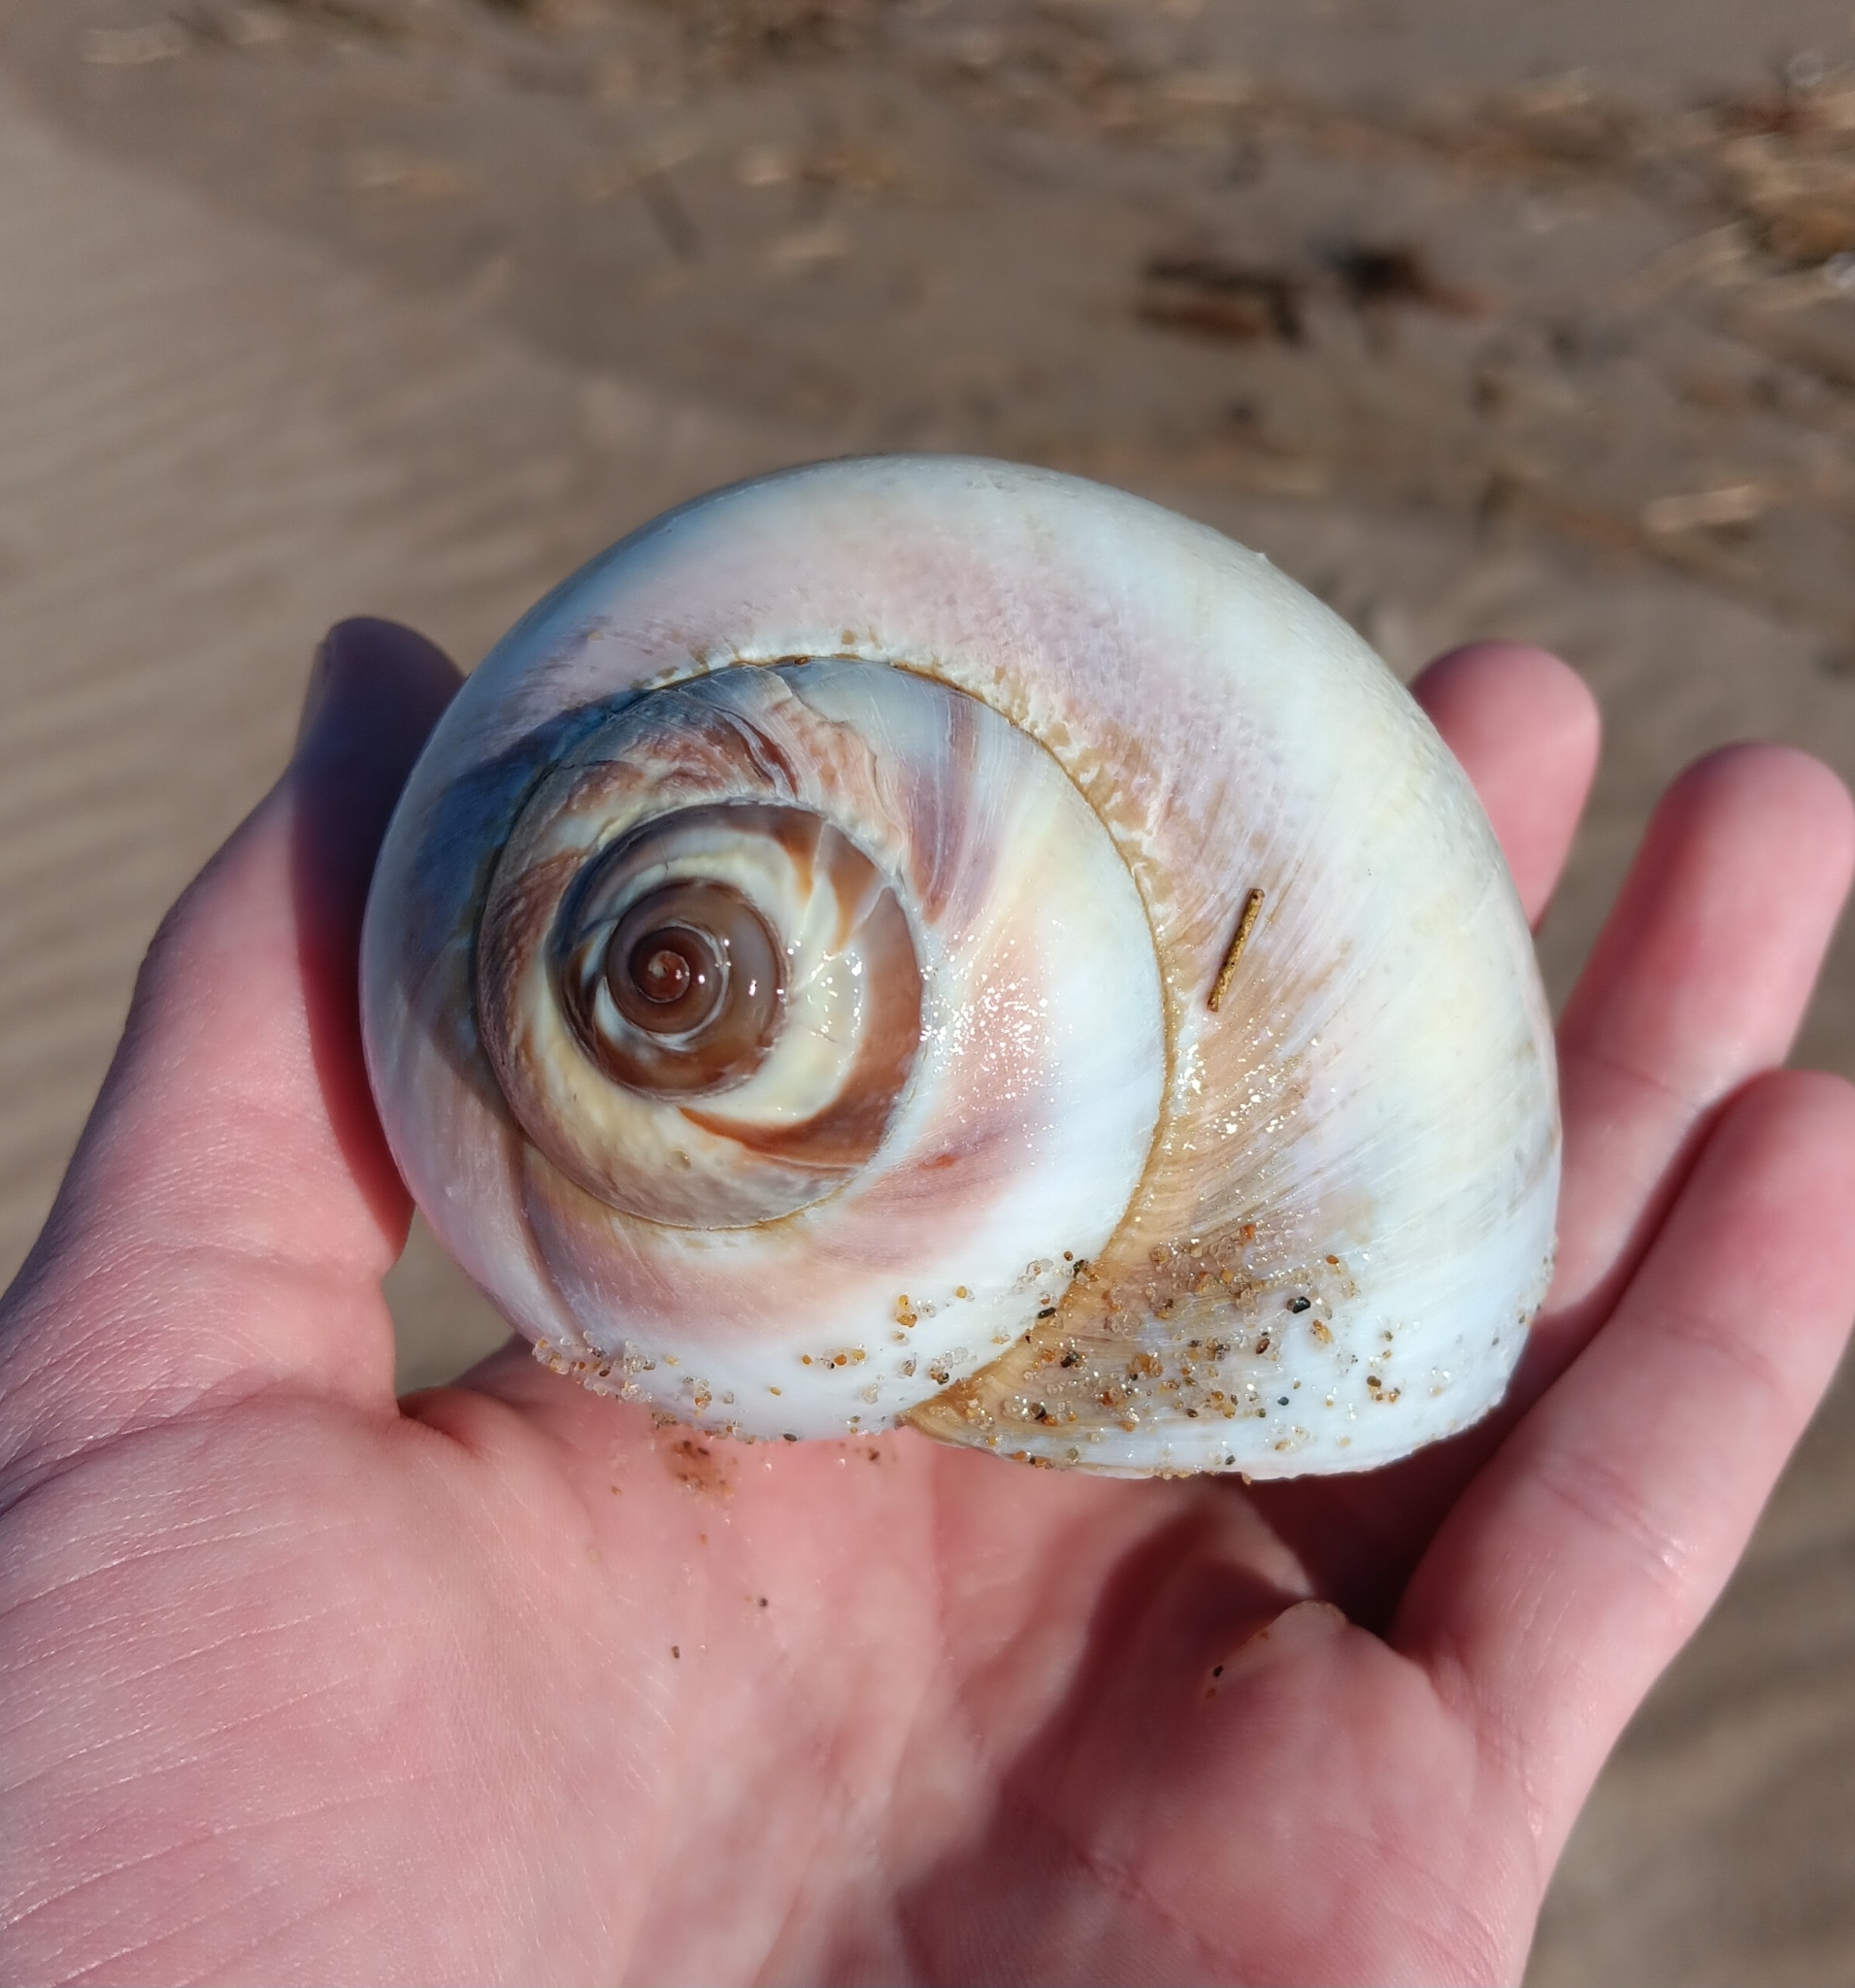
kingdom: Animalia
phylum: Mollusca
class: Gastropoda
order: Littorinimorpha
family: Naticidae
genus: Euspira
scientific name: Euspira heros
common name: Common northern moonsnail
